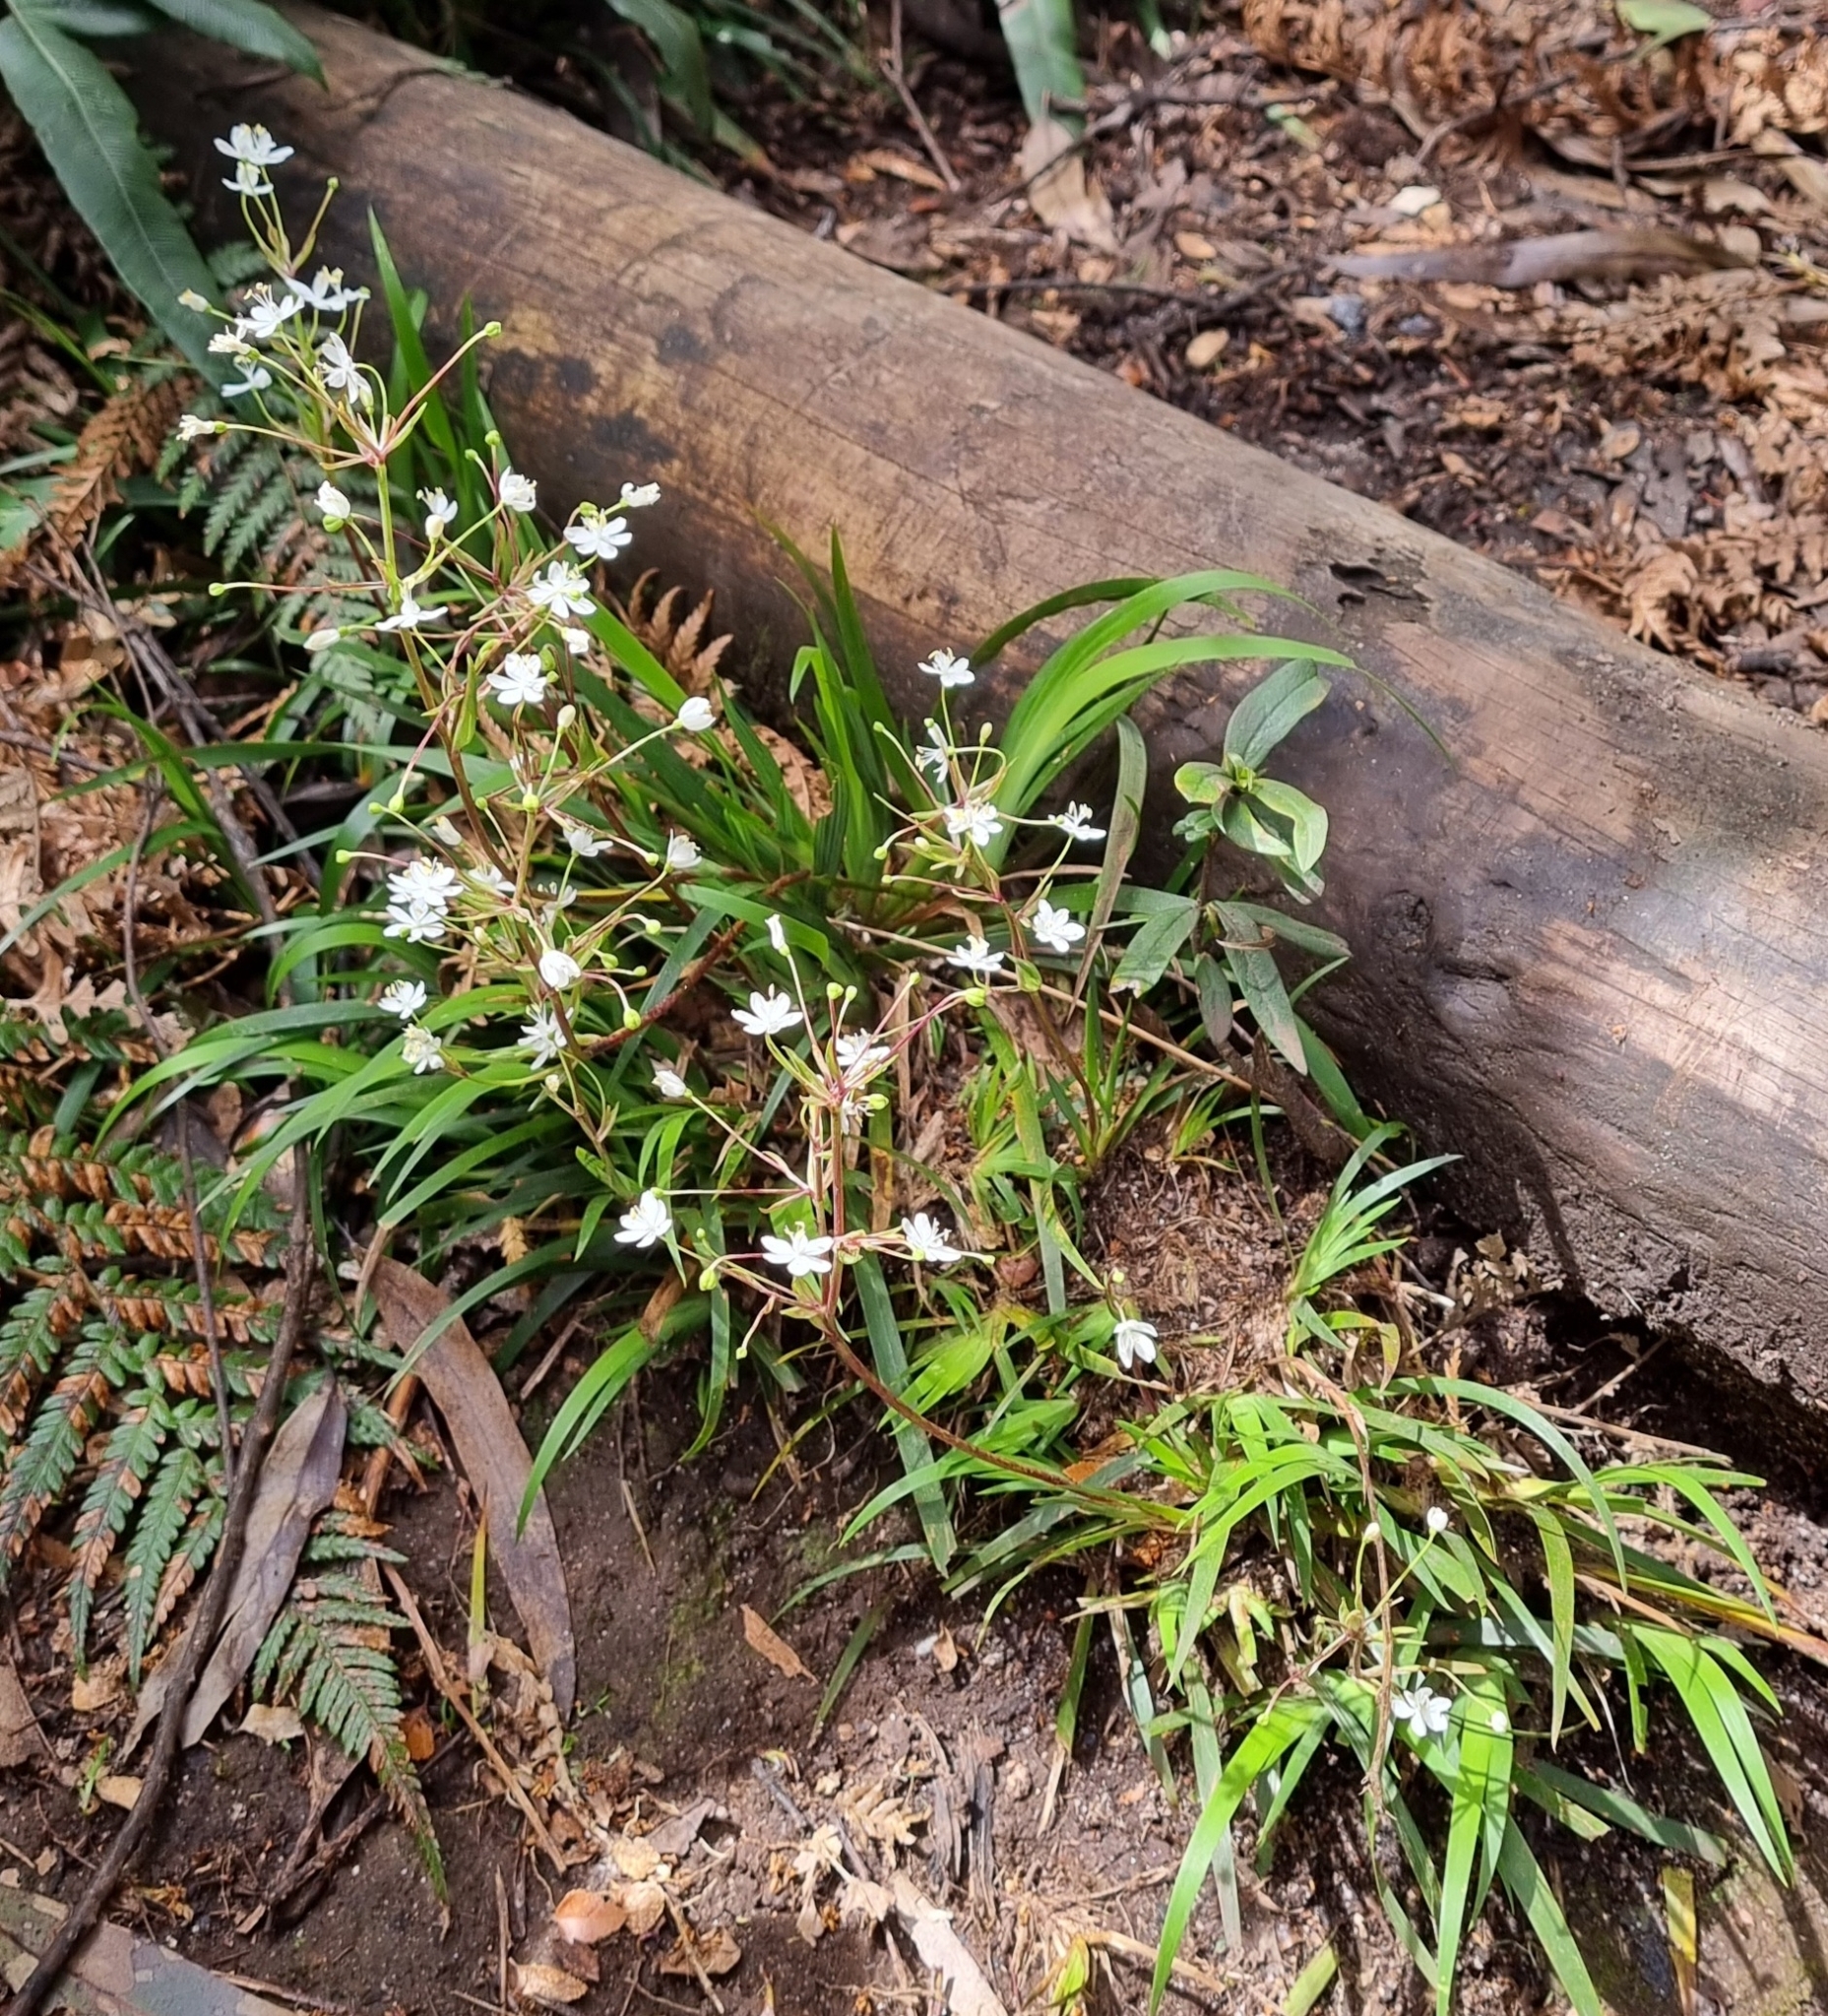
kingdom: Plantae
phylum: Tracheophyta
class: Liliopsida
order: Asparagales
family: Iridaceae
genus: Libertia
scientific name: Libertia pulchella
